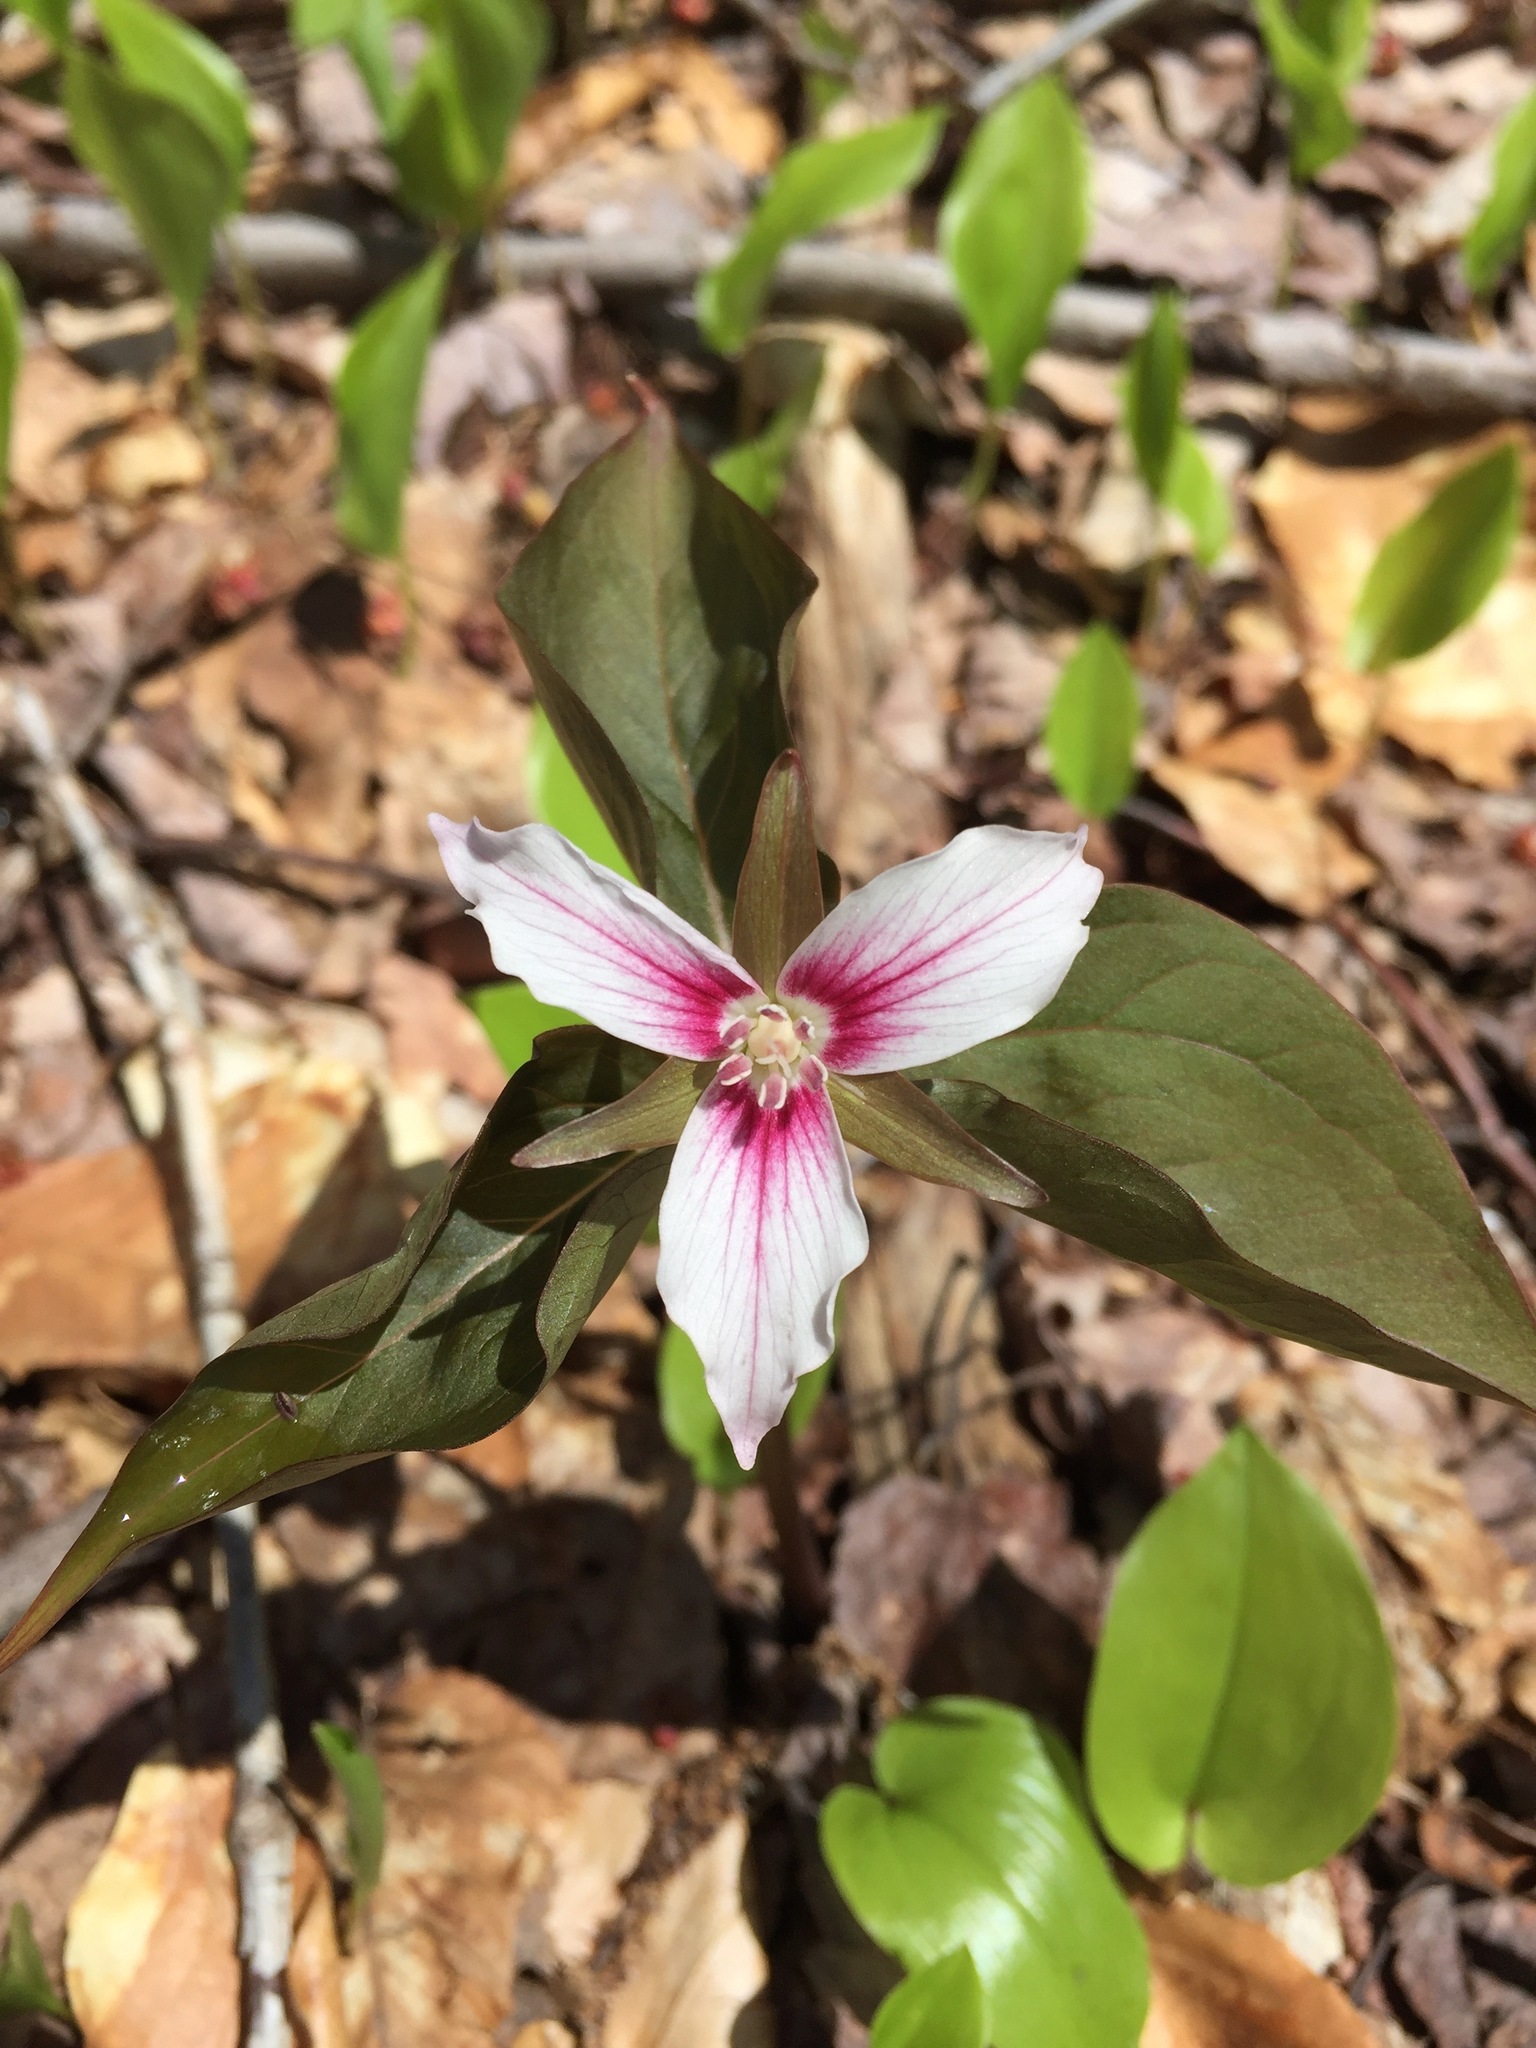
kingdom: Plantae
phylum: Tracheophyta
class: Liliopsida
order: Liliales
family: Melanthiaceae
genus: Trillium
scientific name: Trillium undulatum
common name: Paint trillium
